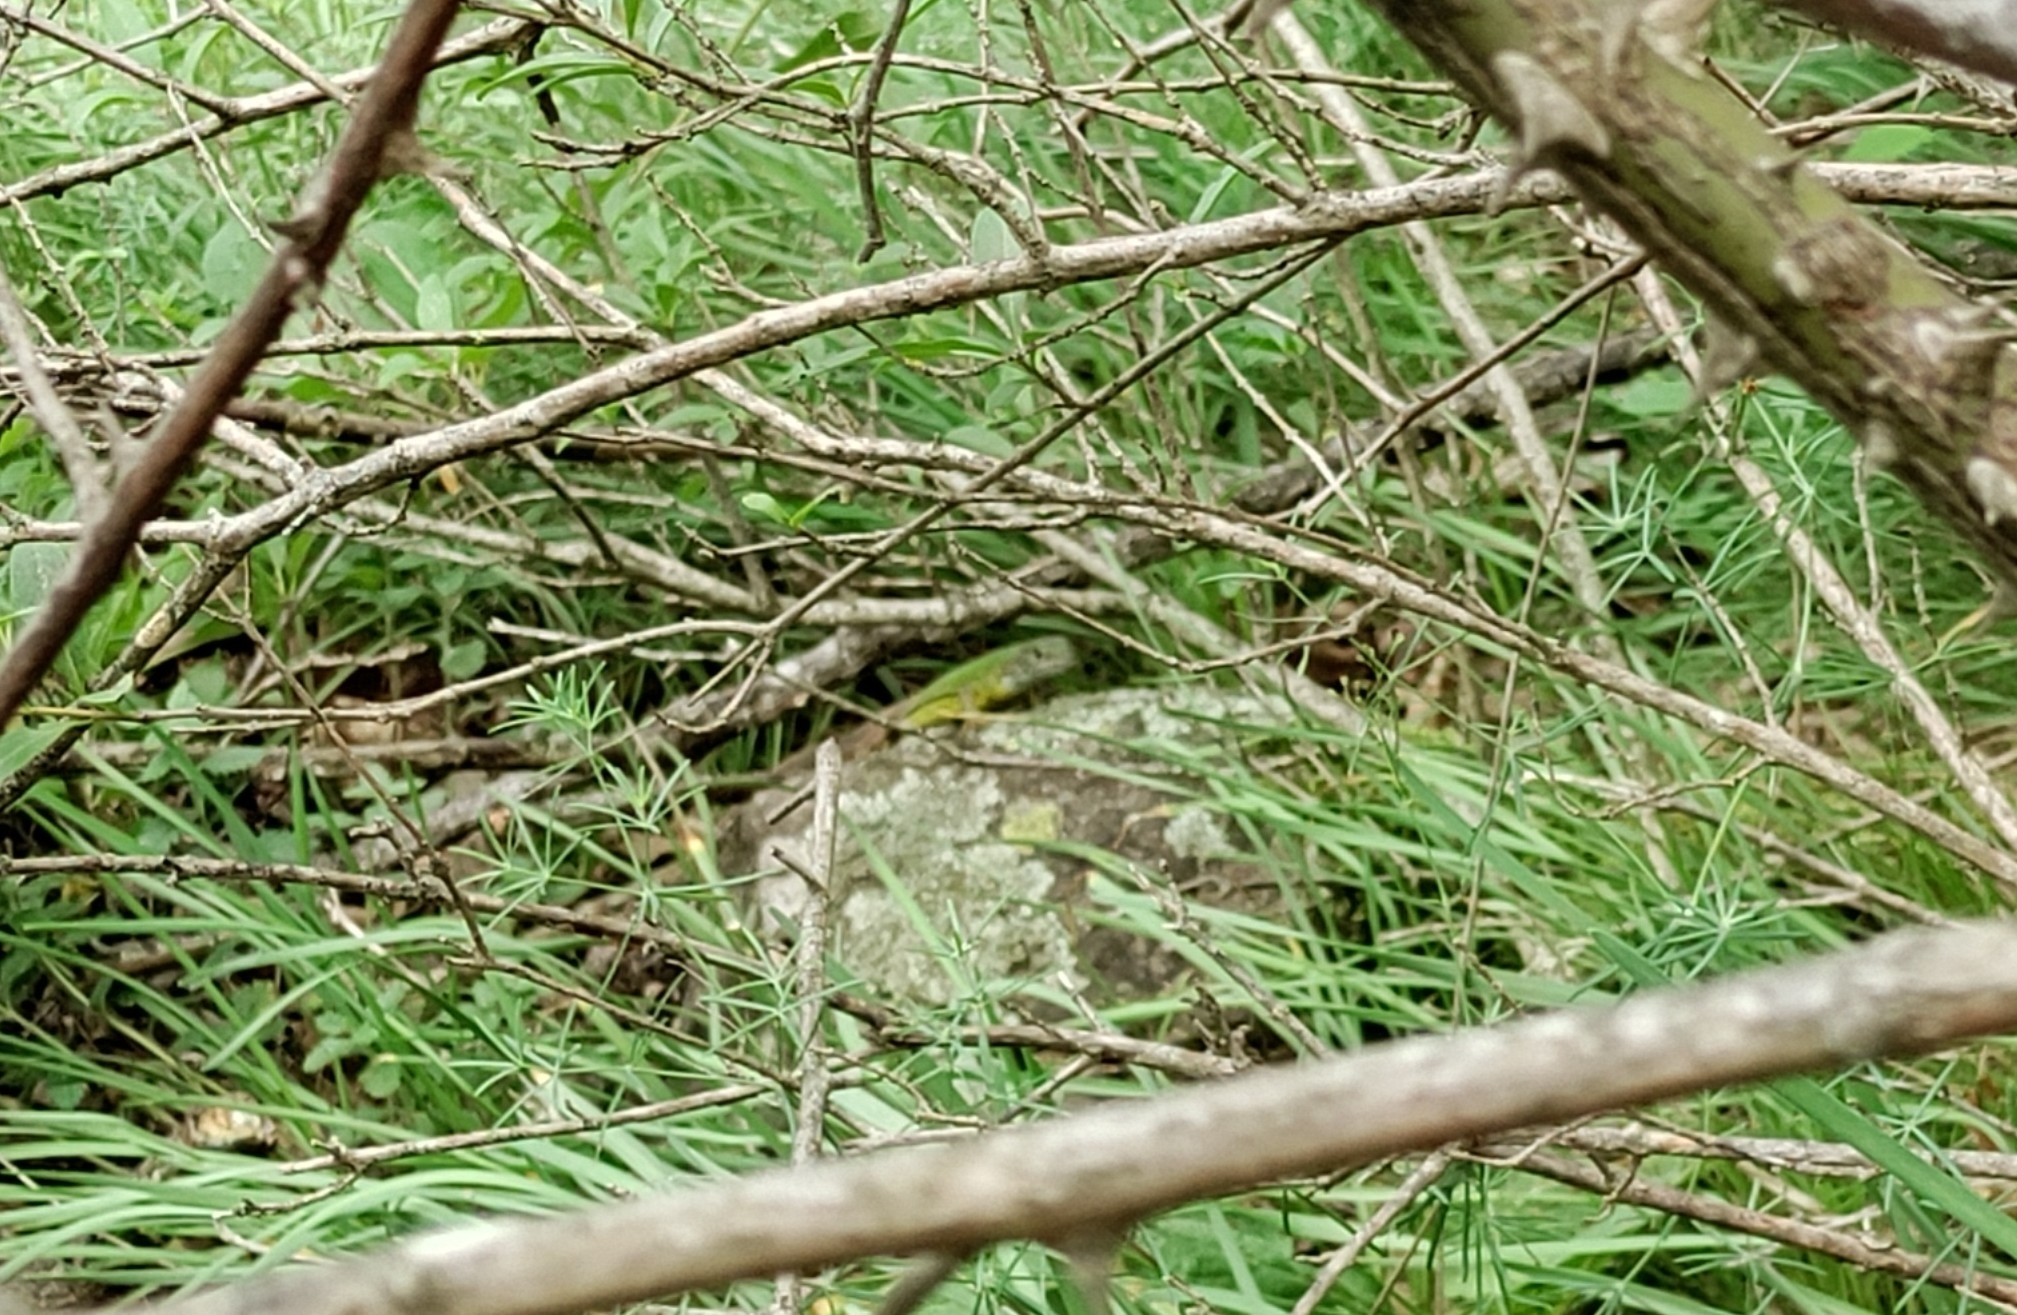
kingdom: Animalia
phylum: Chordata
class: Squamata
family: Lacertidae
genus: Lacerta
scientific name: Lacerta viridis
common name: European green lizard
